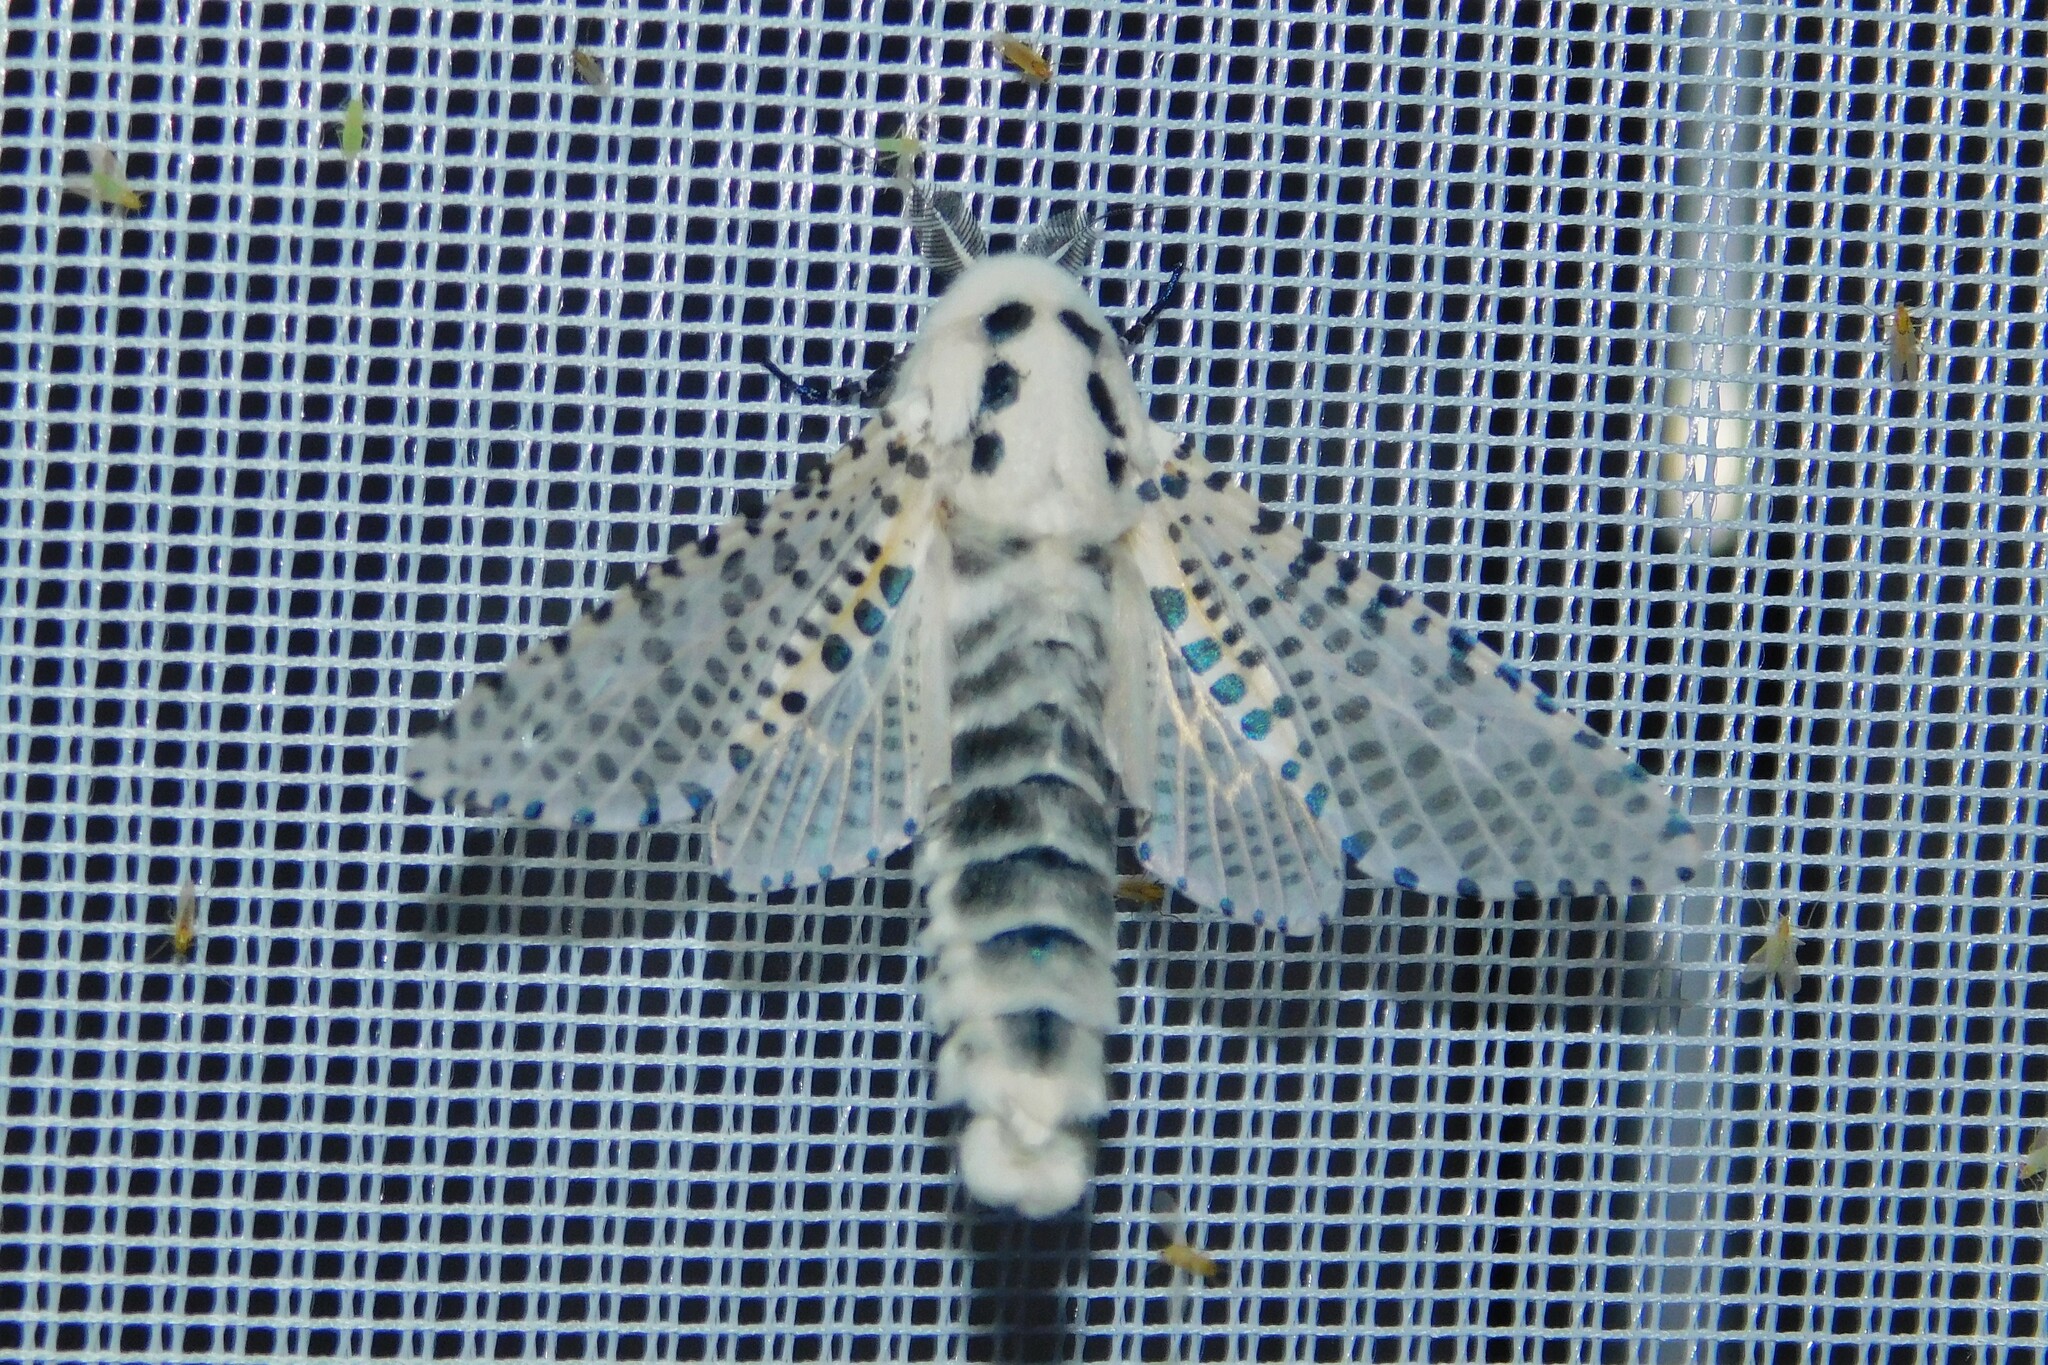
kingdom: Animalia
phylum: Arthropoda
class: Insecta
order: Lepidoptera
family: Cossidae
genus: Zeuzera
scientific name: Zeuzera pyrina
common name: Leopard moth
